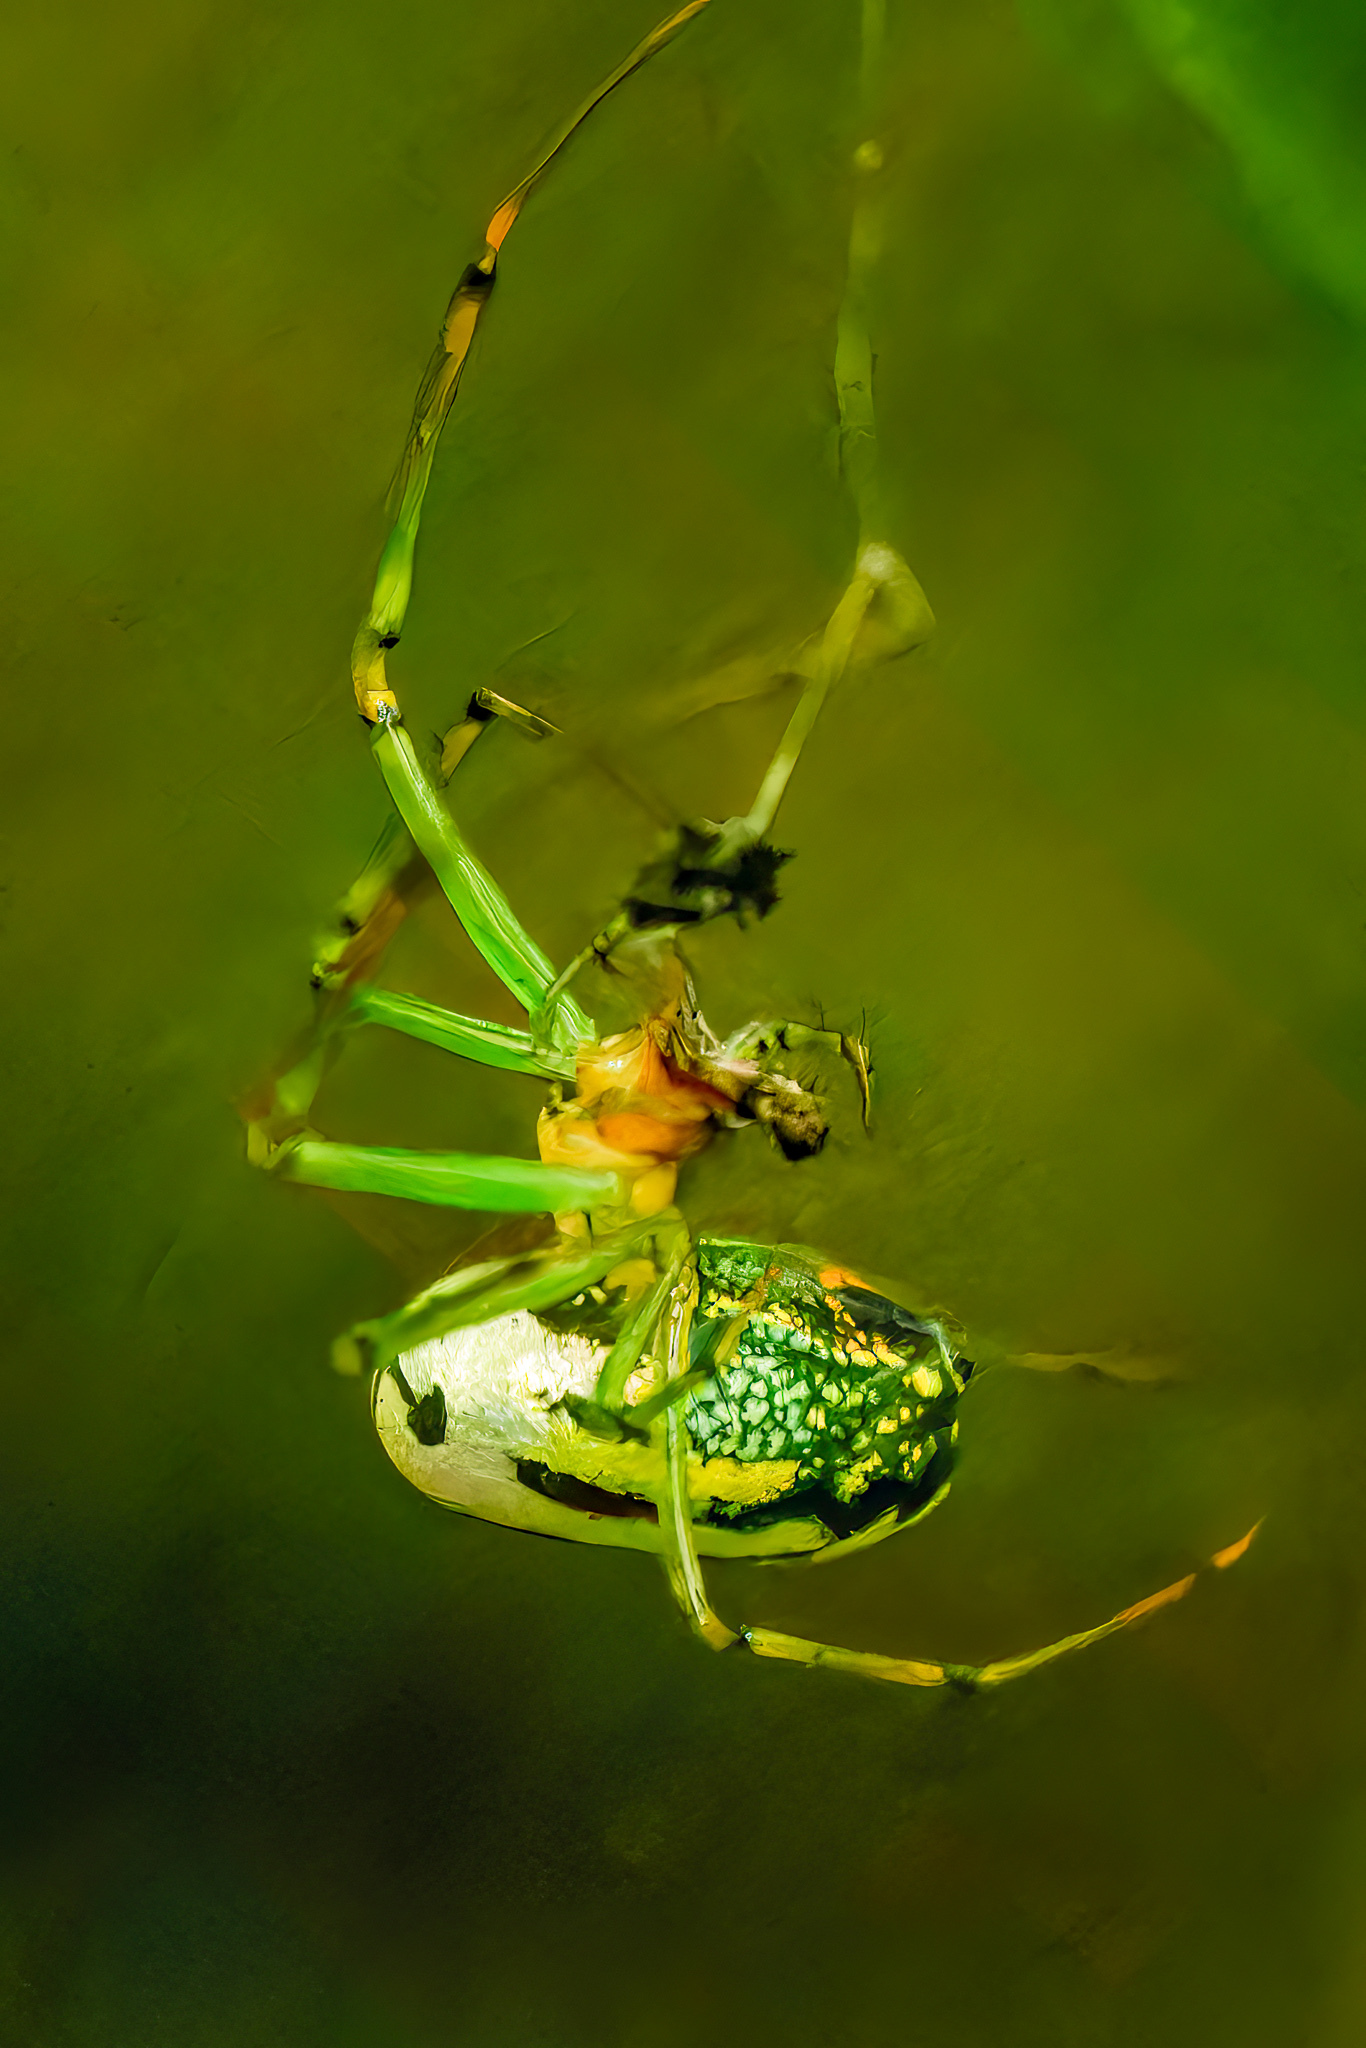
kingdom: Animalia
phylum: Arthropoda
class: Arachnida
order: Araneae
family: Tetragnathidae
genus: Leucauge
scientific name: Leucauge venusta
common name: Longjawed orb weavers
